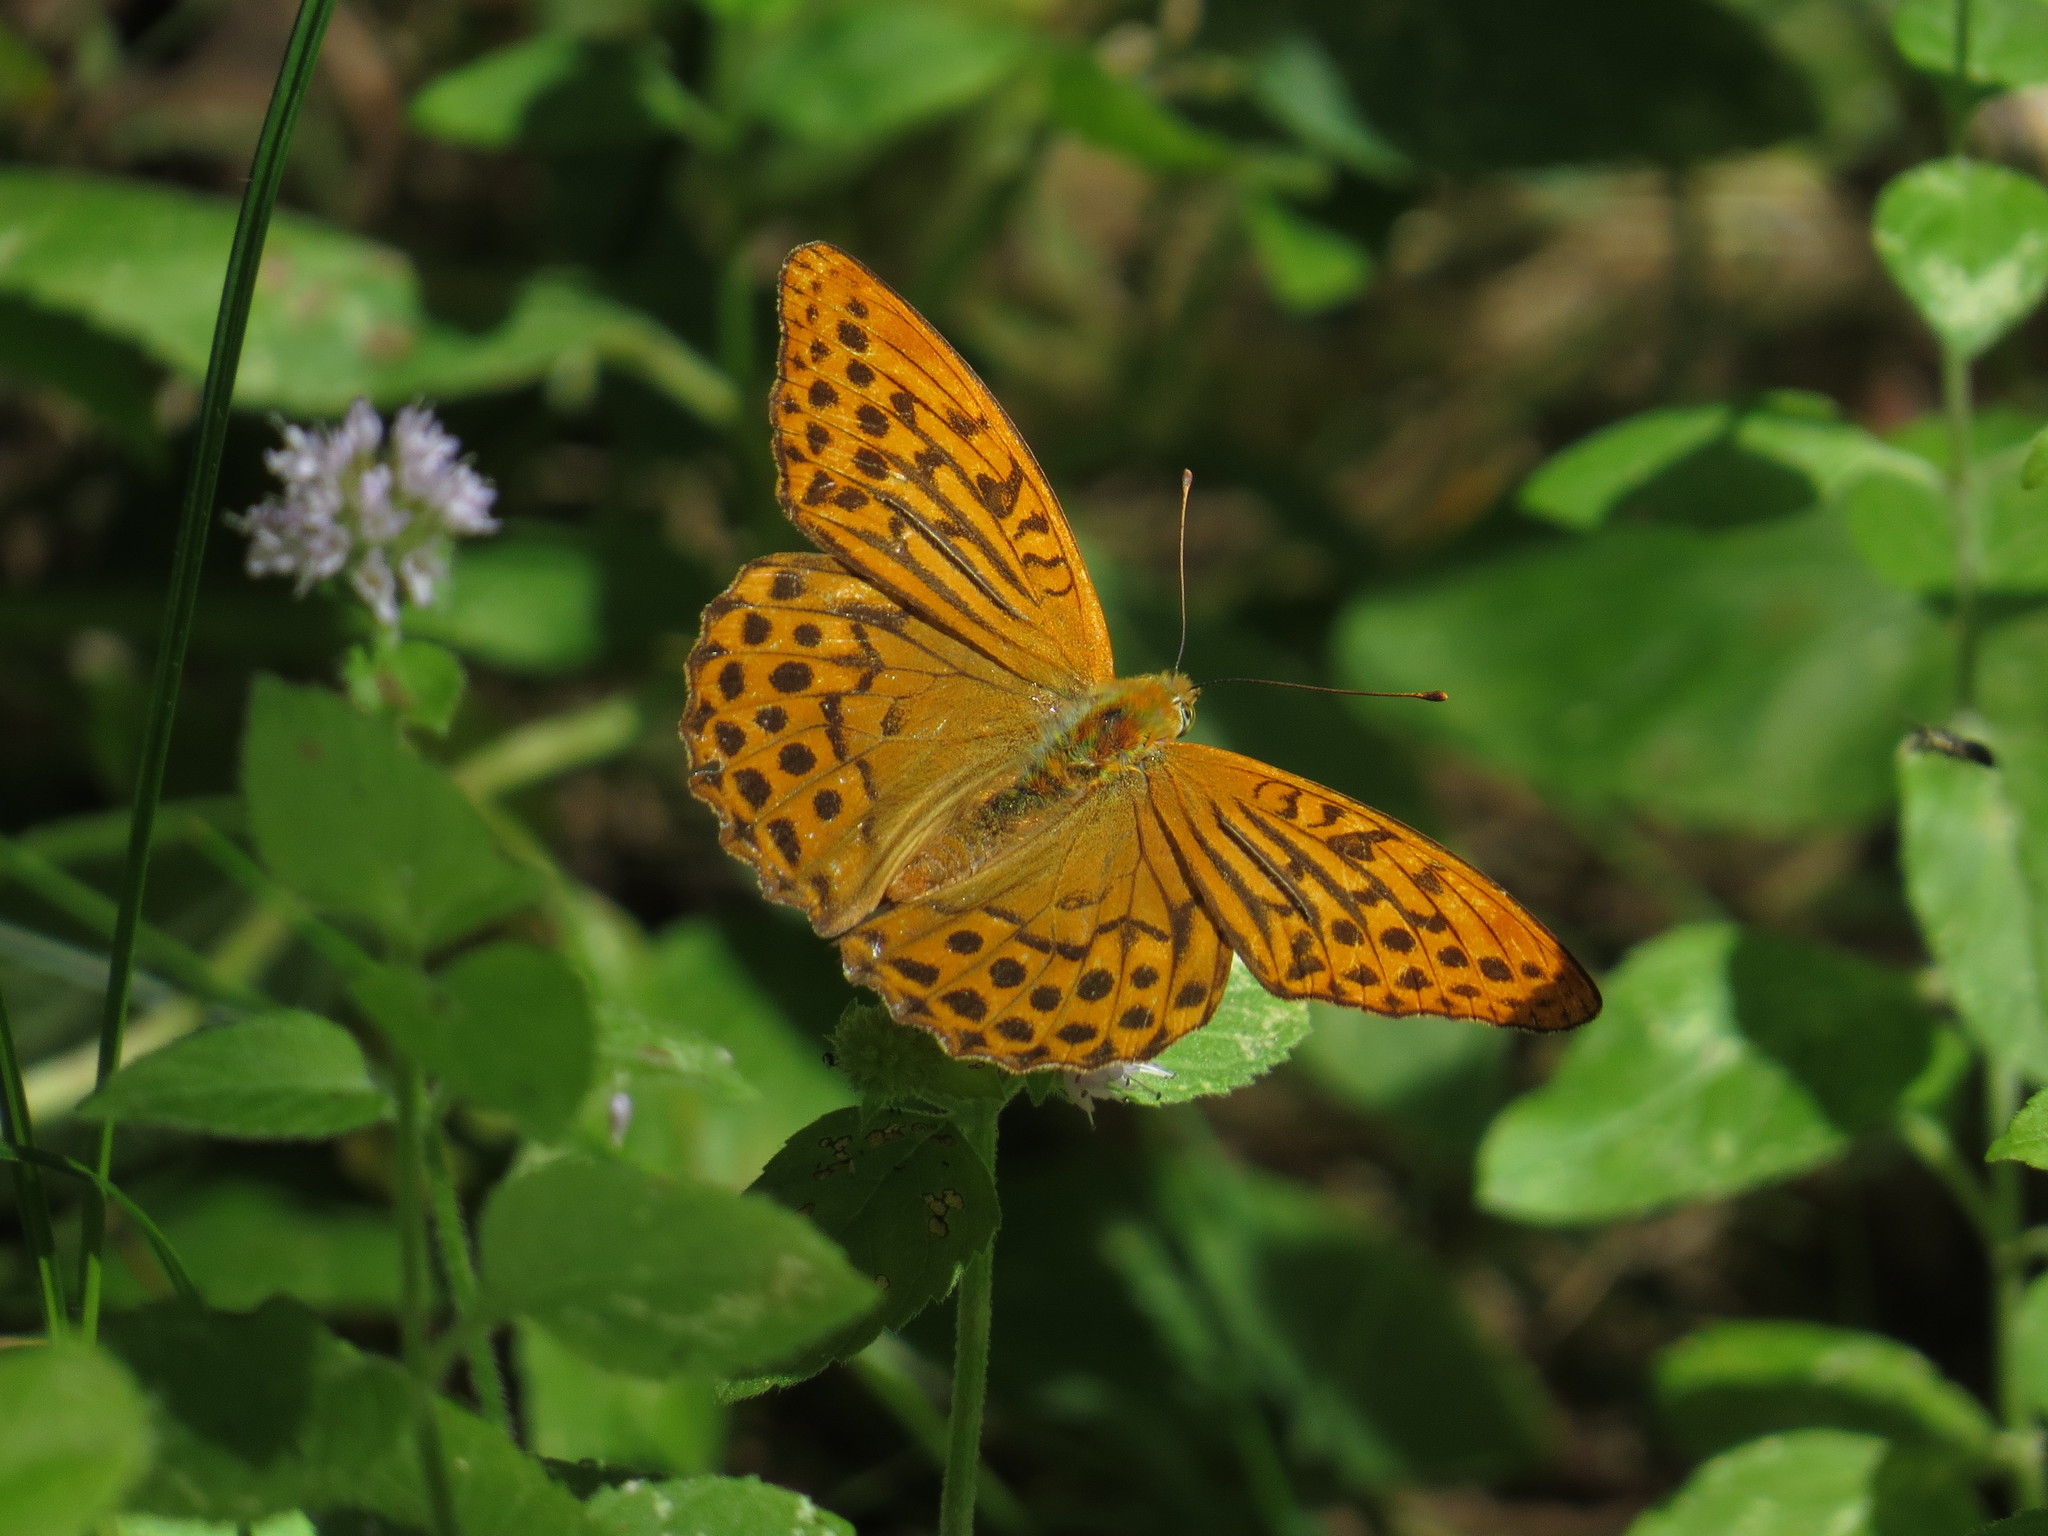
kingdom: Animalia
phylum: Arthropoda
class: Insecta
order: Lepidoptera
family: Nymphalidae
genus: Argynnis
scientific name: Argynnis paphia
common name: Silver-washed fritillary
